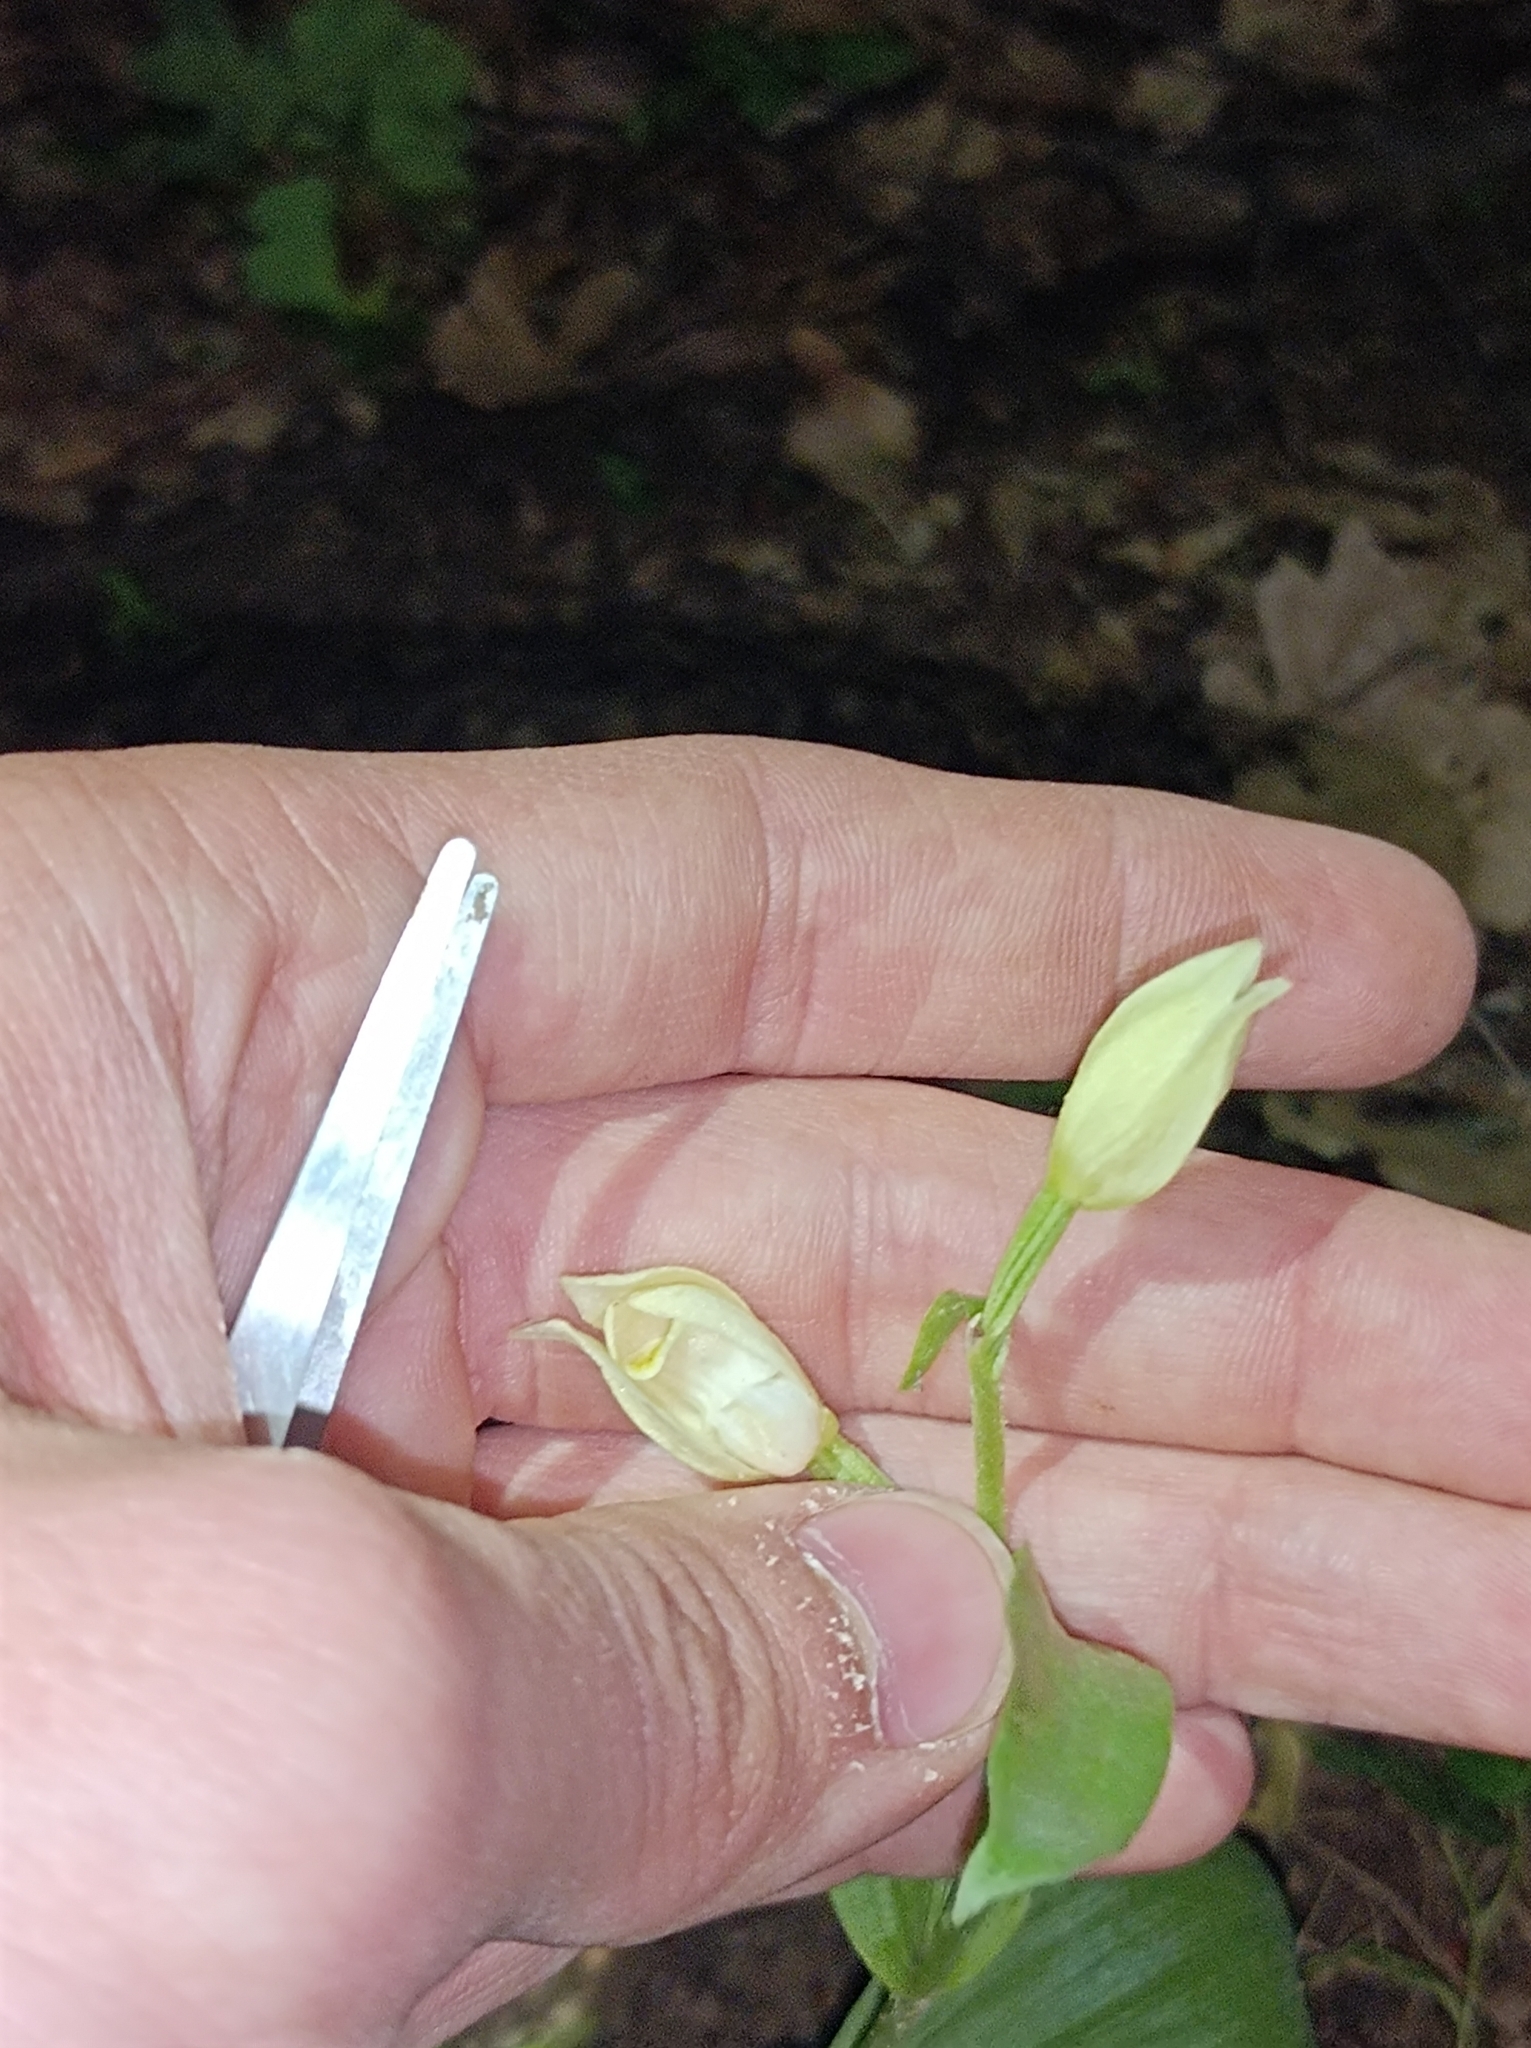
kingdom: Plantae
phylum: Tracheophyta
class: Liliopsida
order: Asparagales
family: Orchidaceae
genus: Cephalanthera
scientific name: Cephalanthera damasonium
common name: White helleborine
